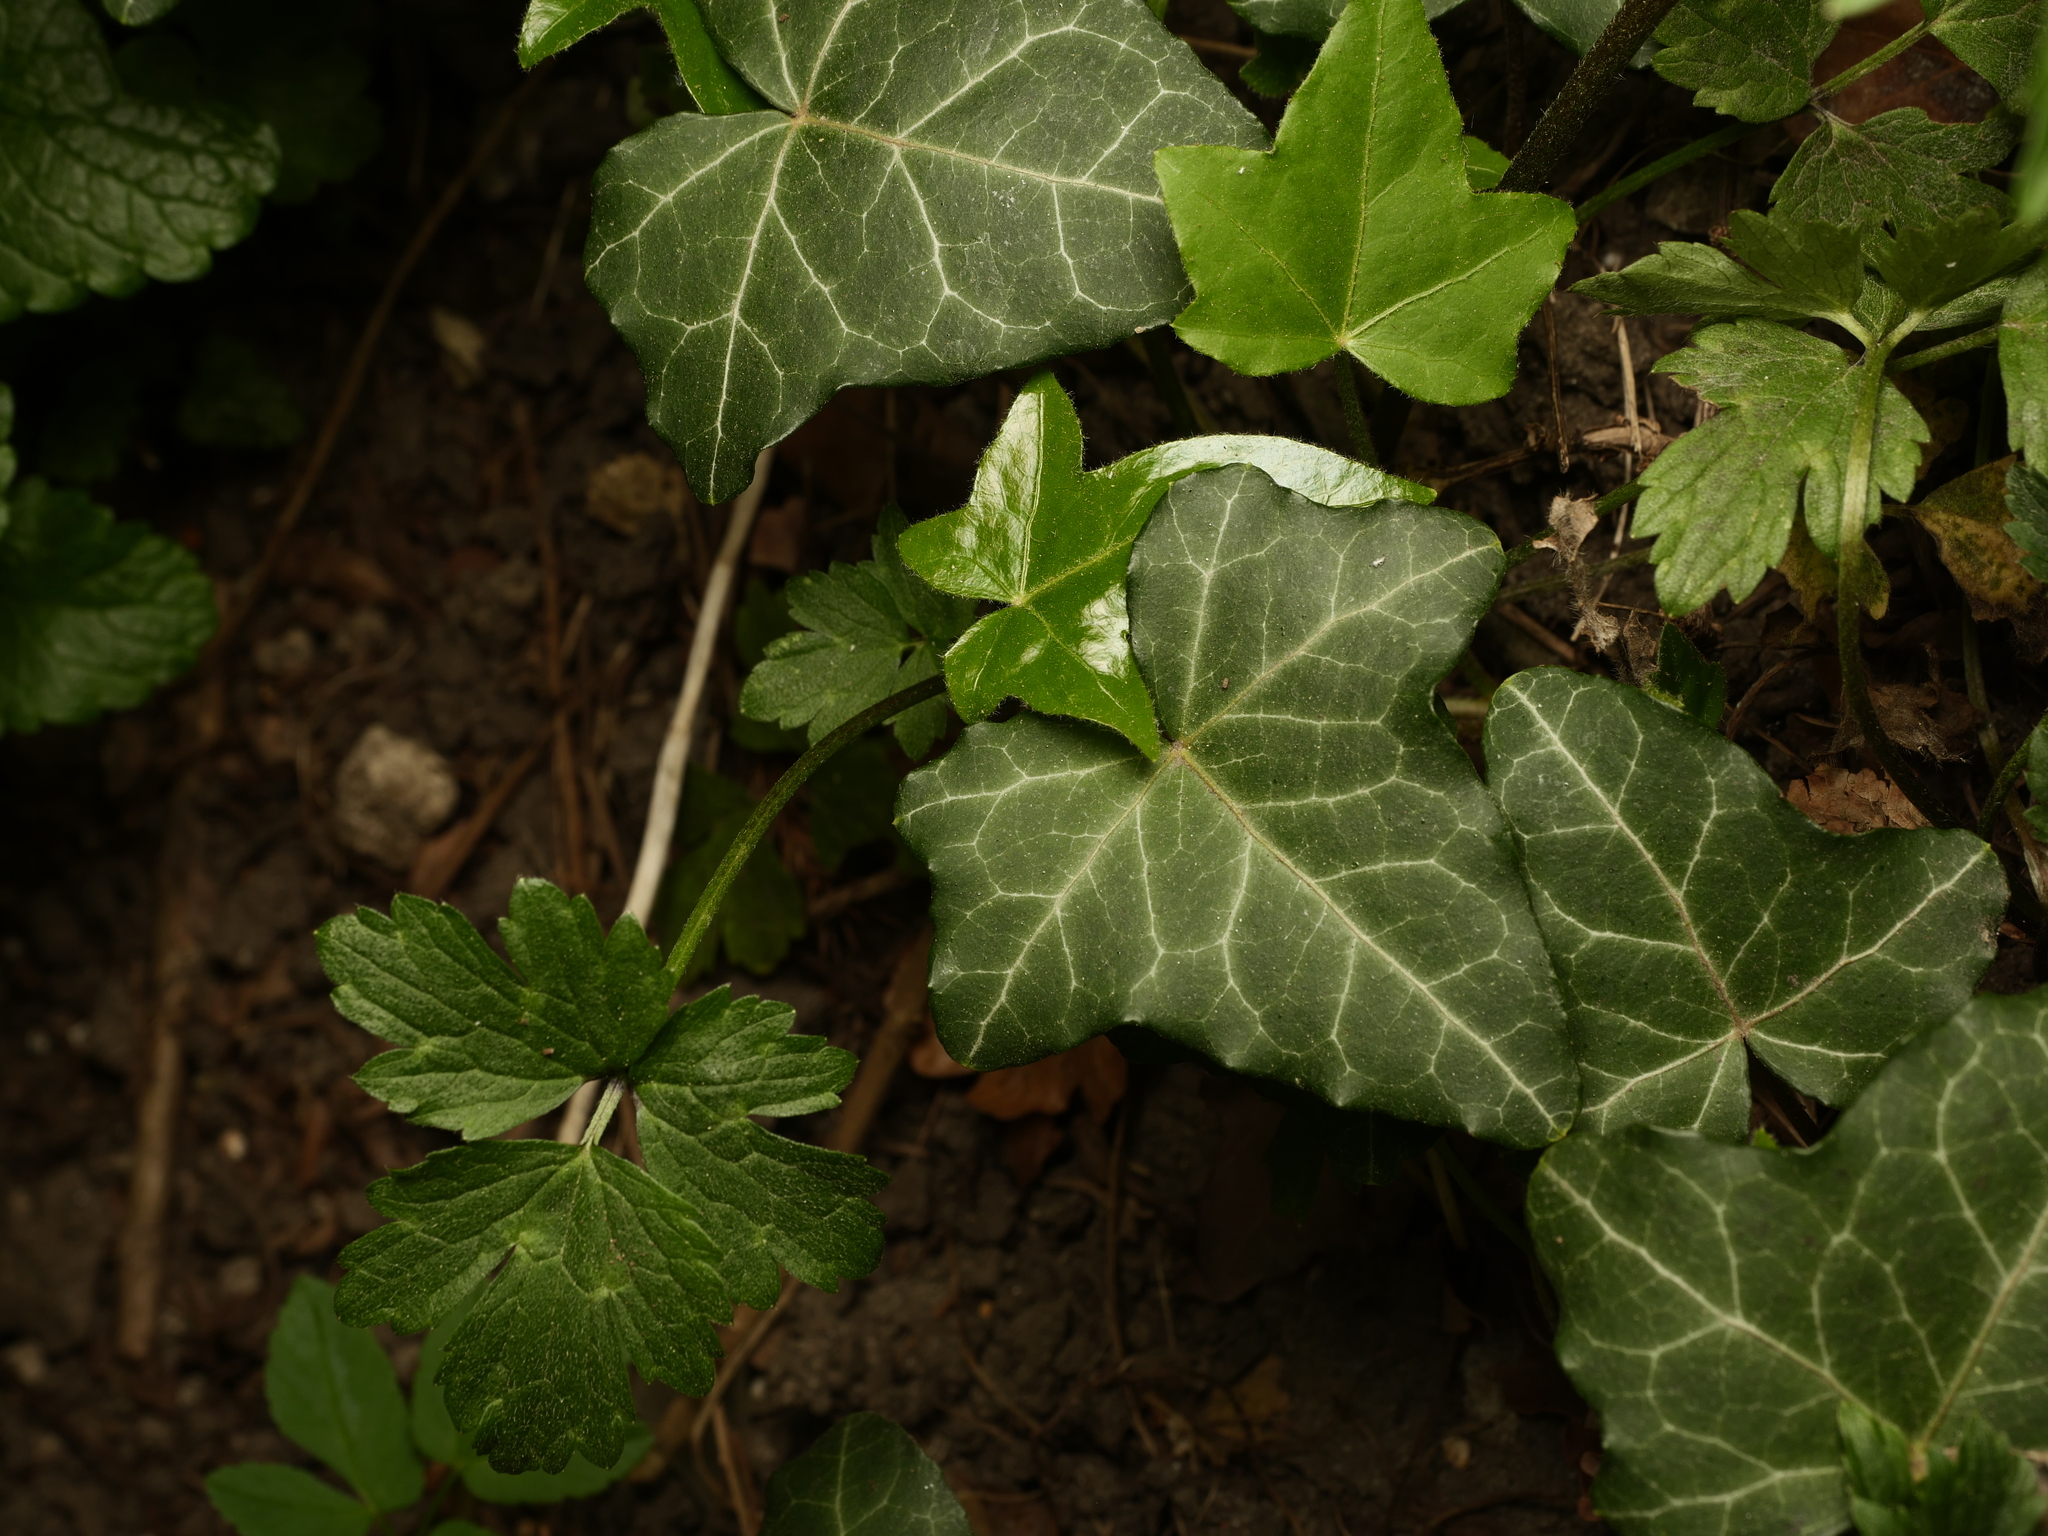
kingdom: Plantae
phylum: Tracheophyta
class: Magnoliopsida
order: Apiales
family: Araliaceae
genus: Hedera
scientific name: Hedera helix
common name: Ivy
